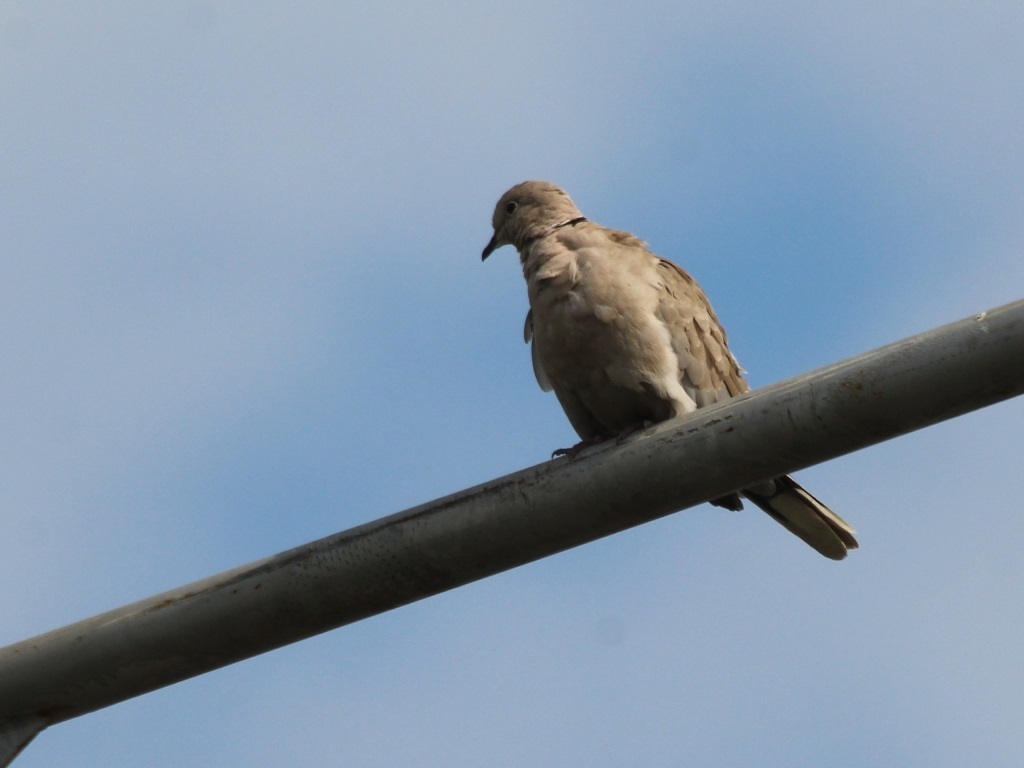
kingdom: Animalia
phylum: Chordata
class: Aves
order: Columbiformes
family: Columbidae
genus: Streptopelia
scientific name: Streptopelia decaocto
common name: Eurasian collared dove
